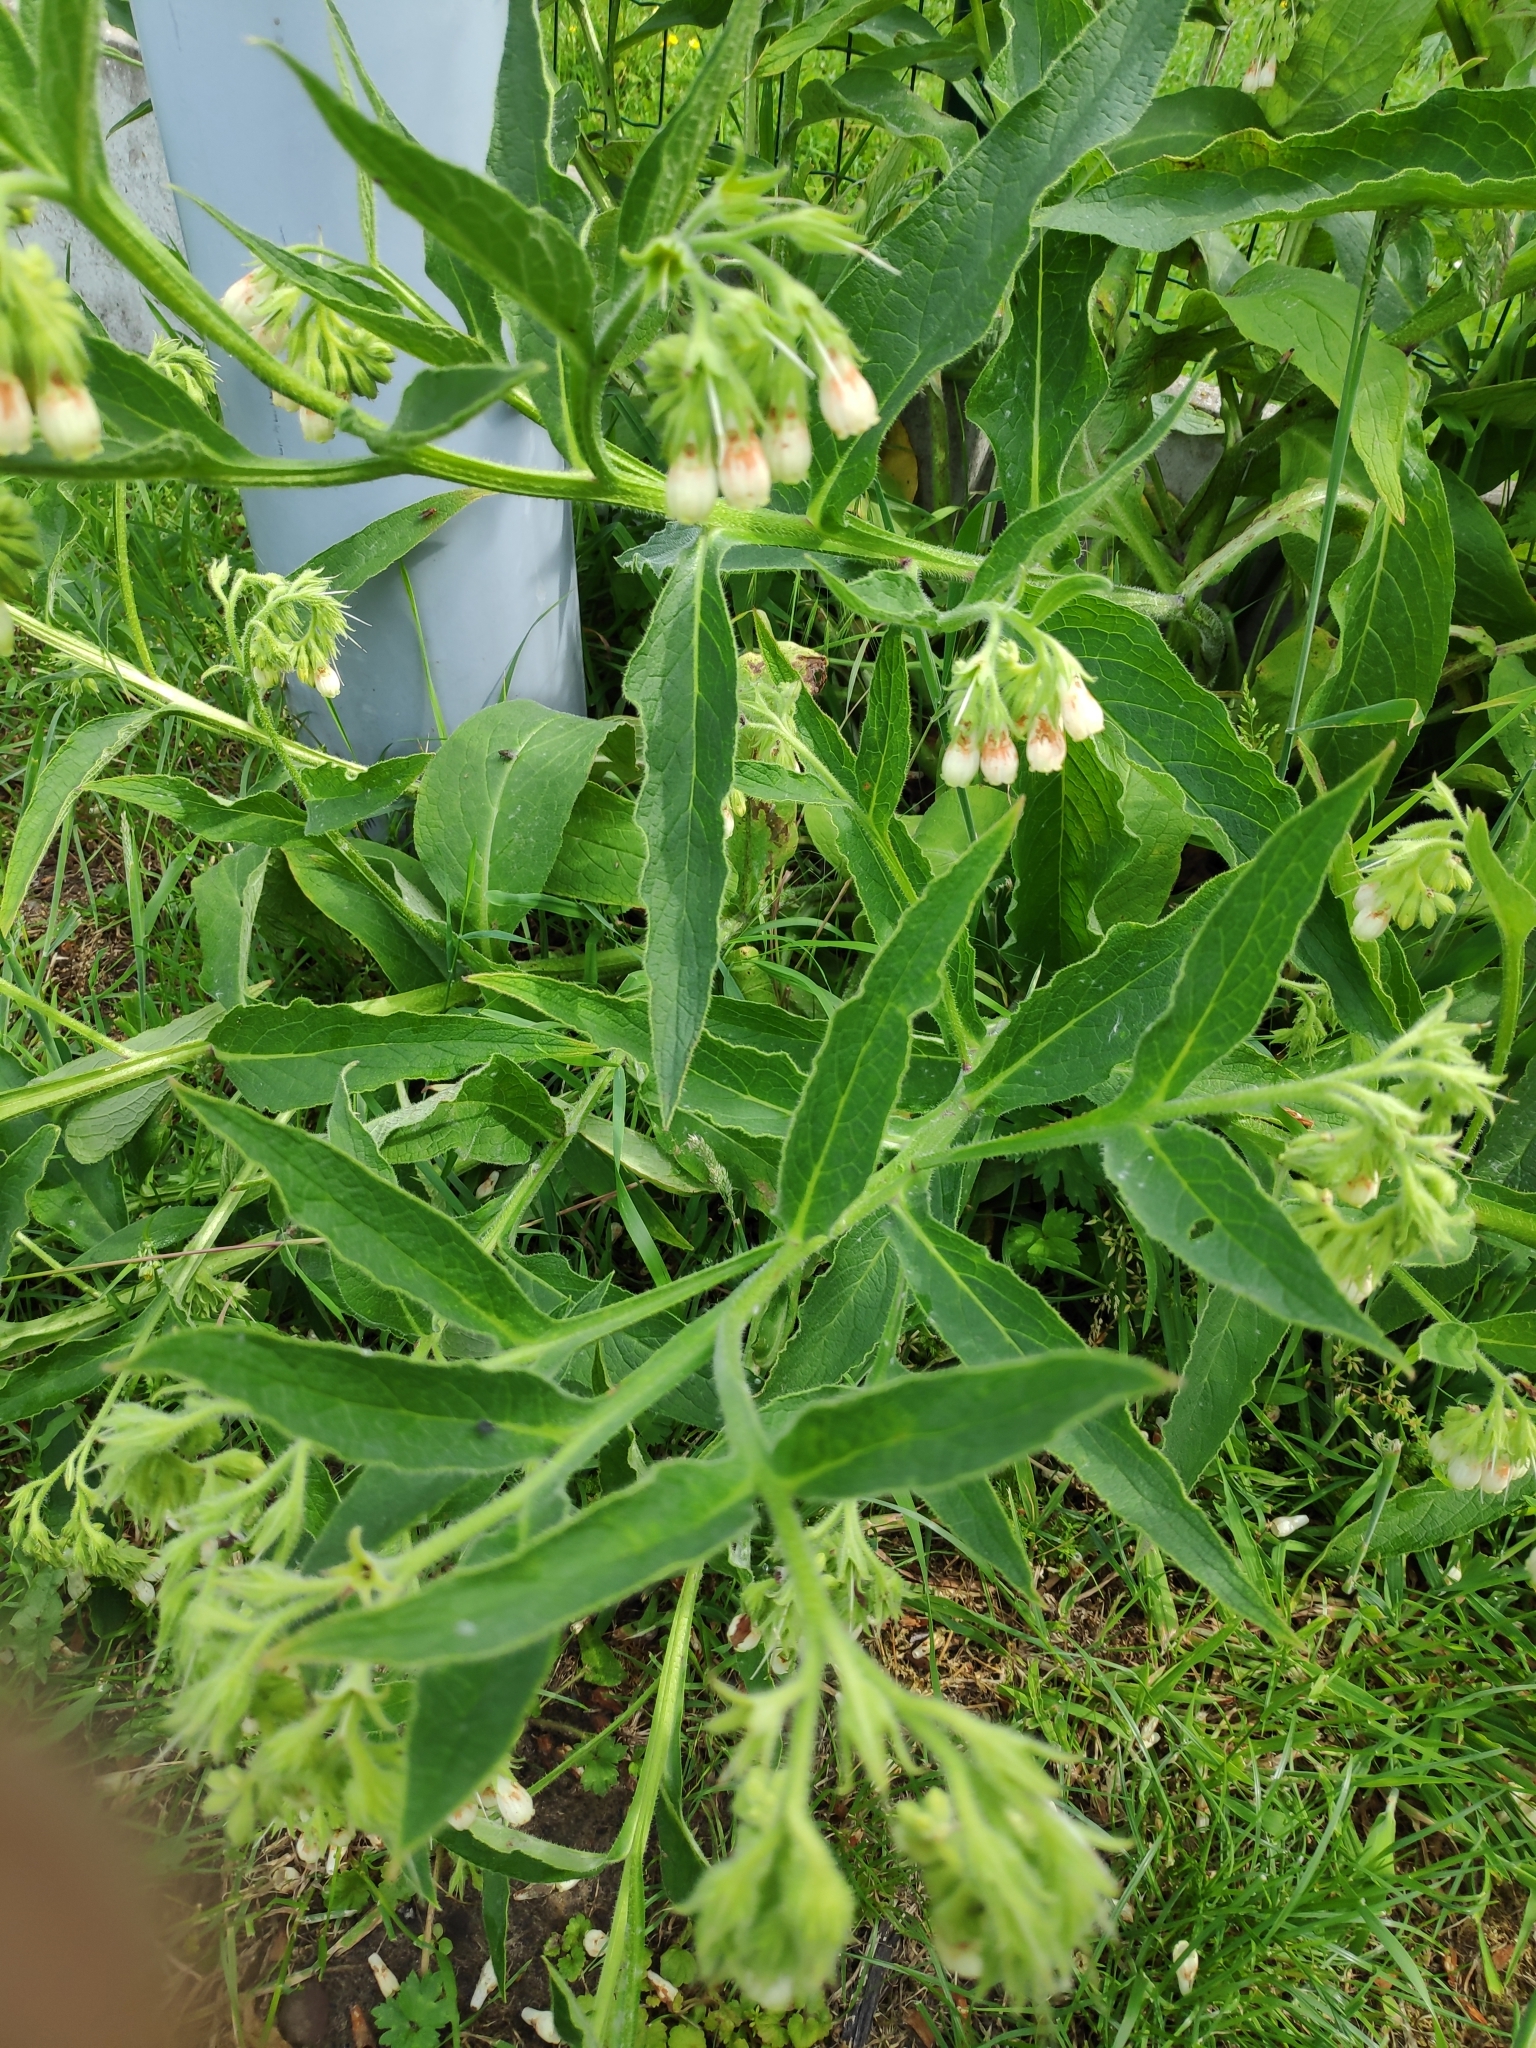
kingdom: Plantae
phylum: Tracheophyta
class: Magnoliopsida
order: Boraginales
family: Boraginaceae
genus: Symphytum
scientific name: Symphytum officinale
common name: Common comfrey
